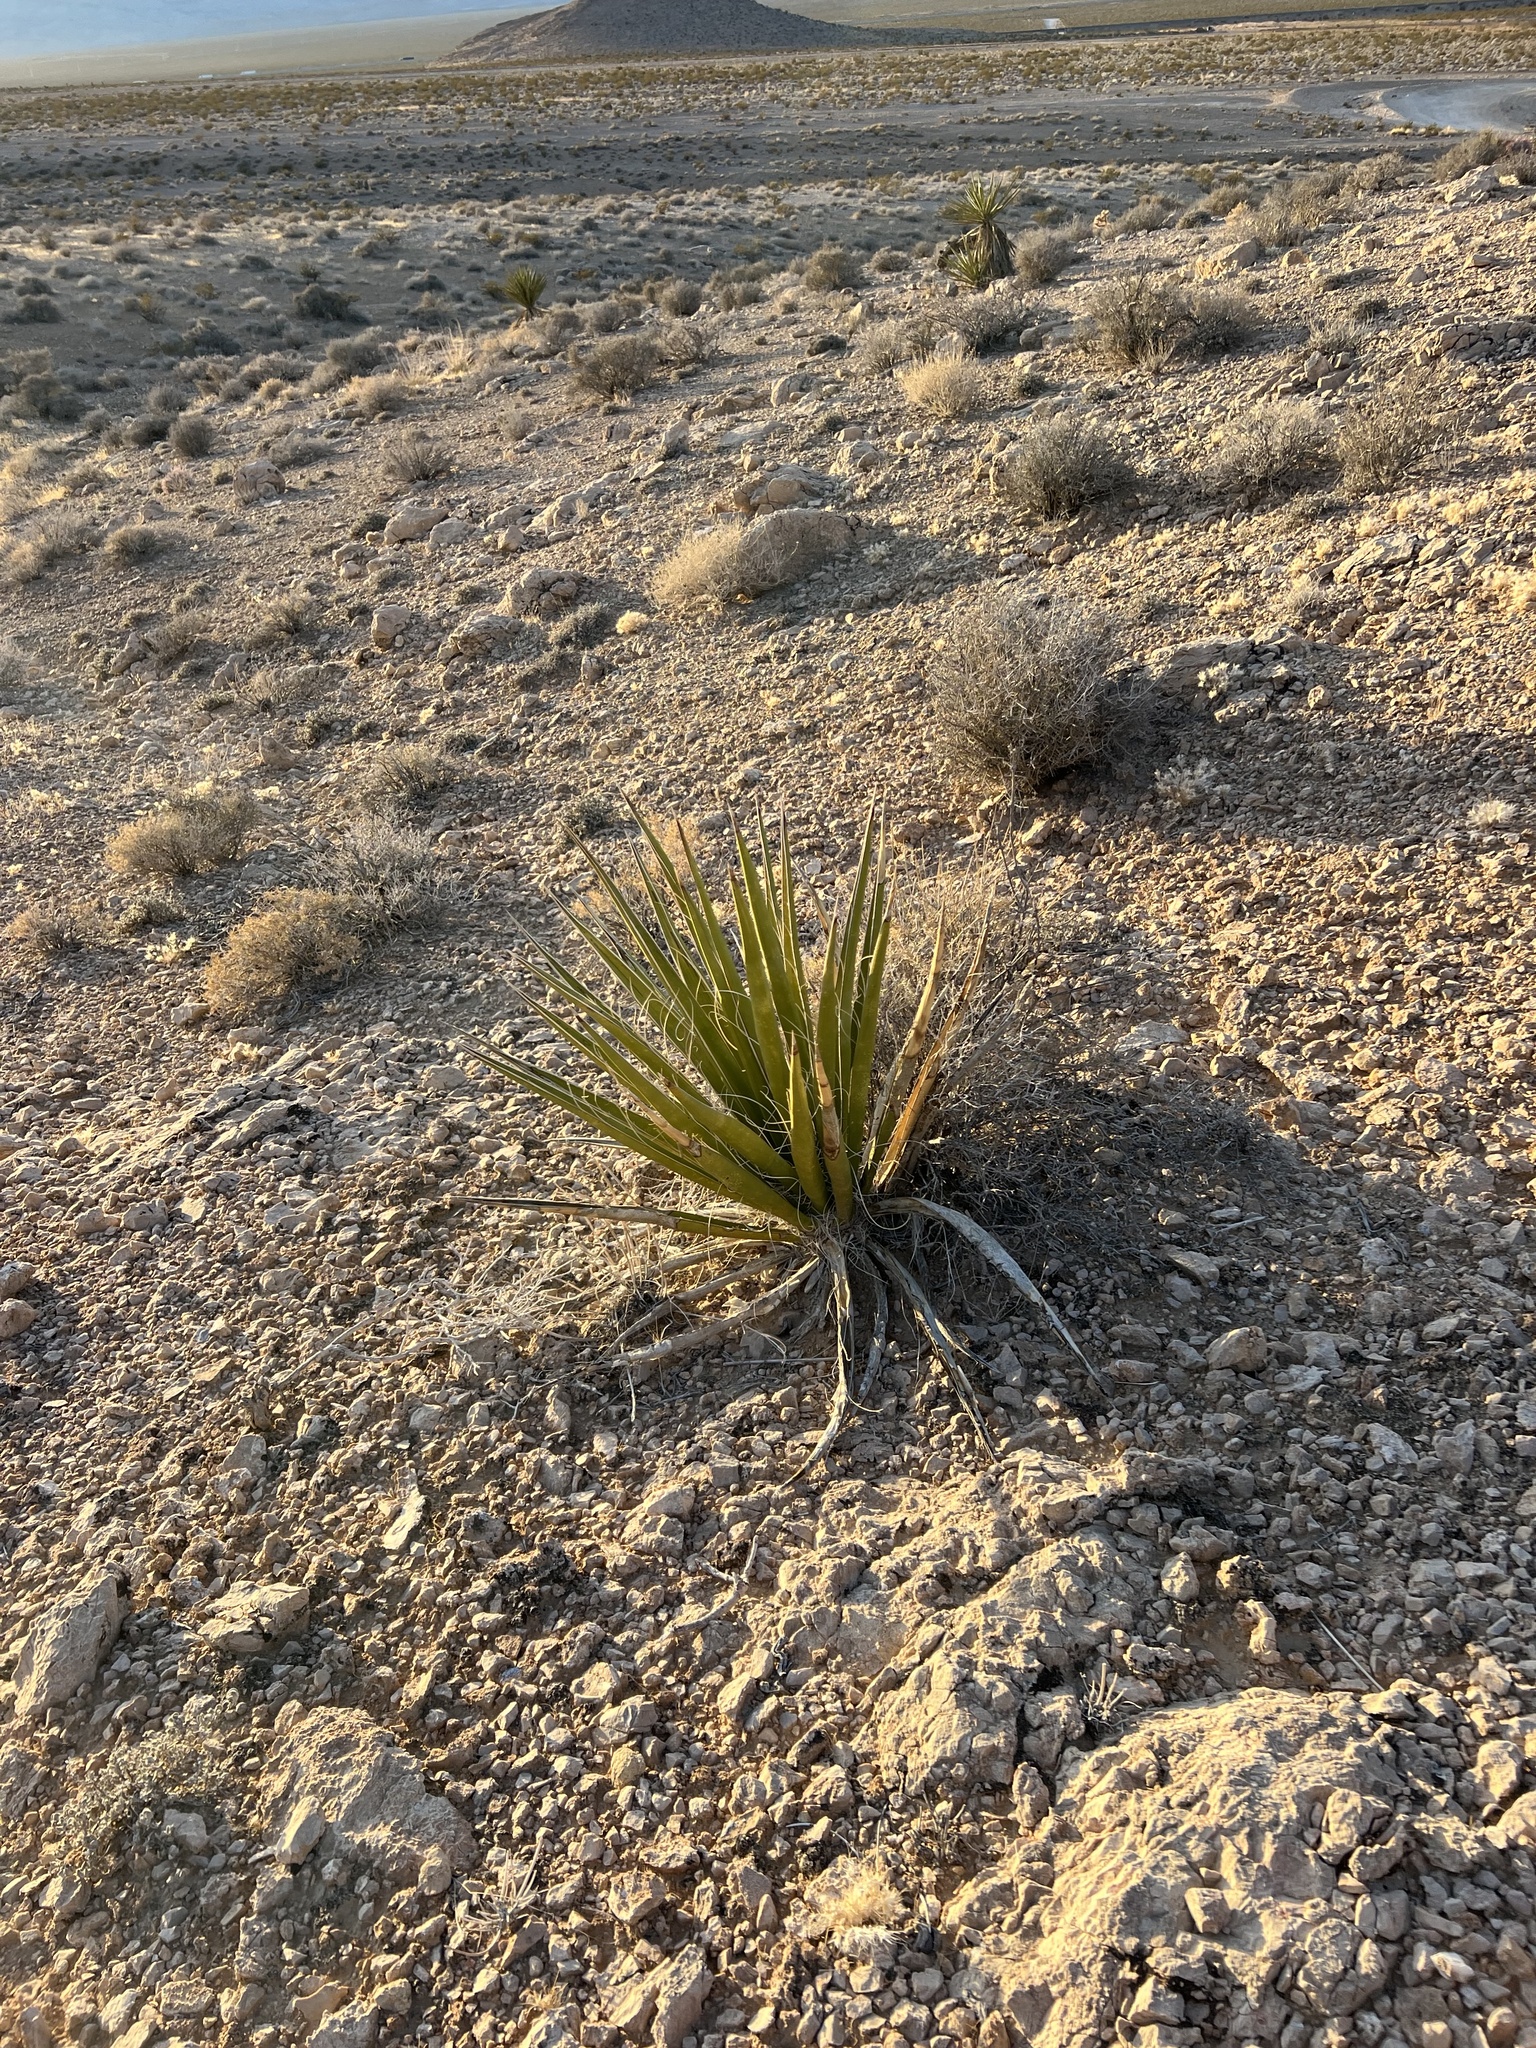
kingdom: Plantae
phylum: Tracheophyta
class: Liliopsida
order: Asparagales
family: Asparagaceae
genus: Yucca
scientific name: Yucca schidigera
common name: Mojave yucca
